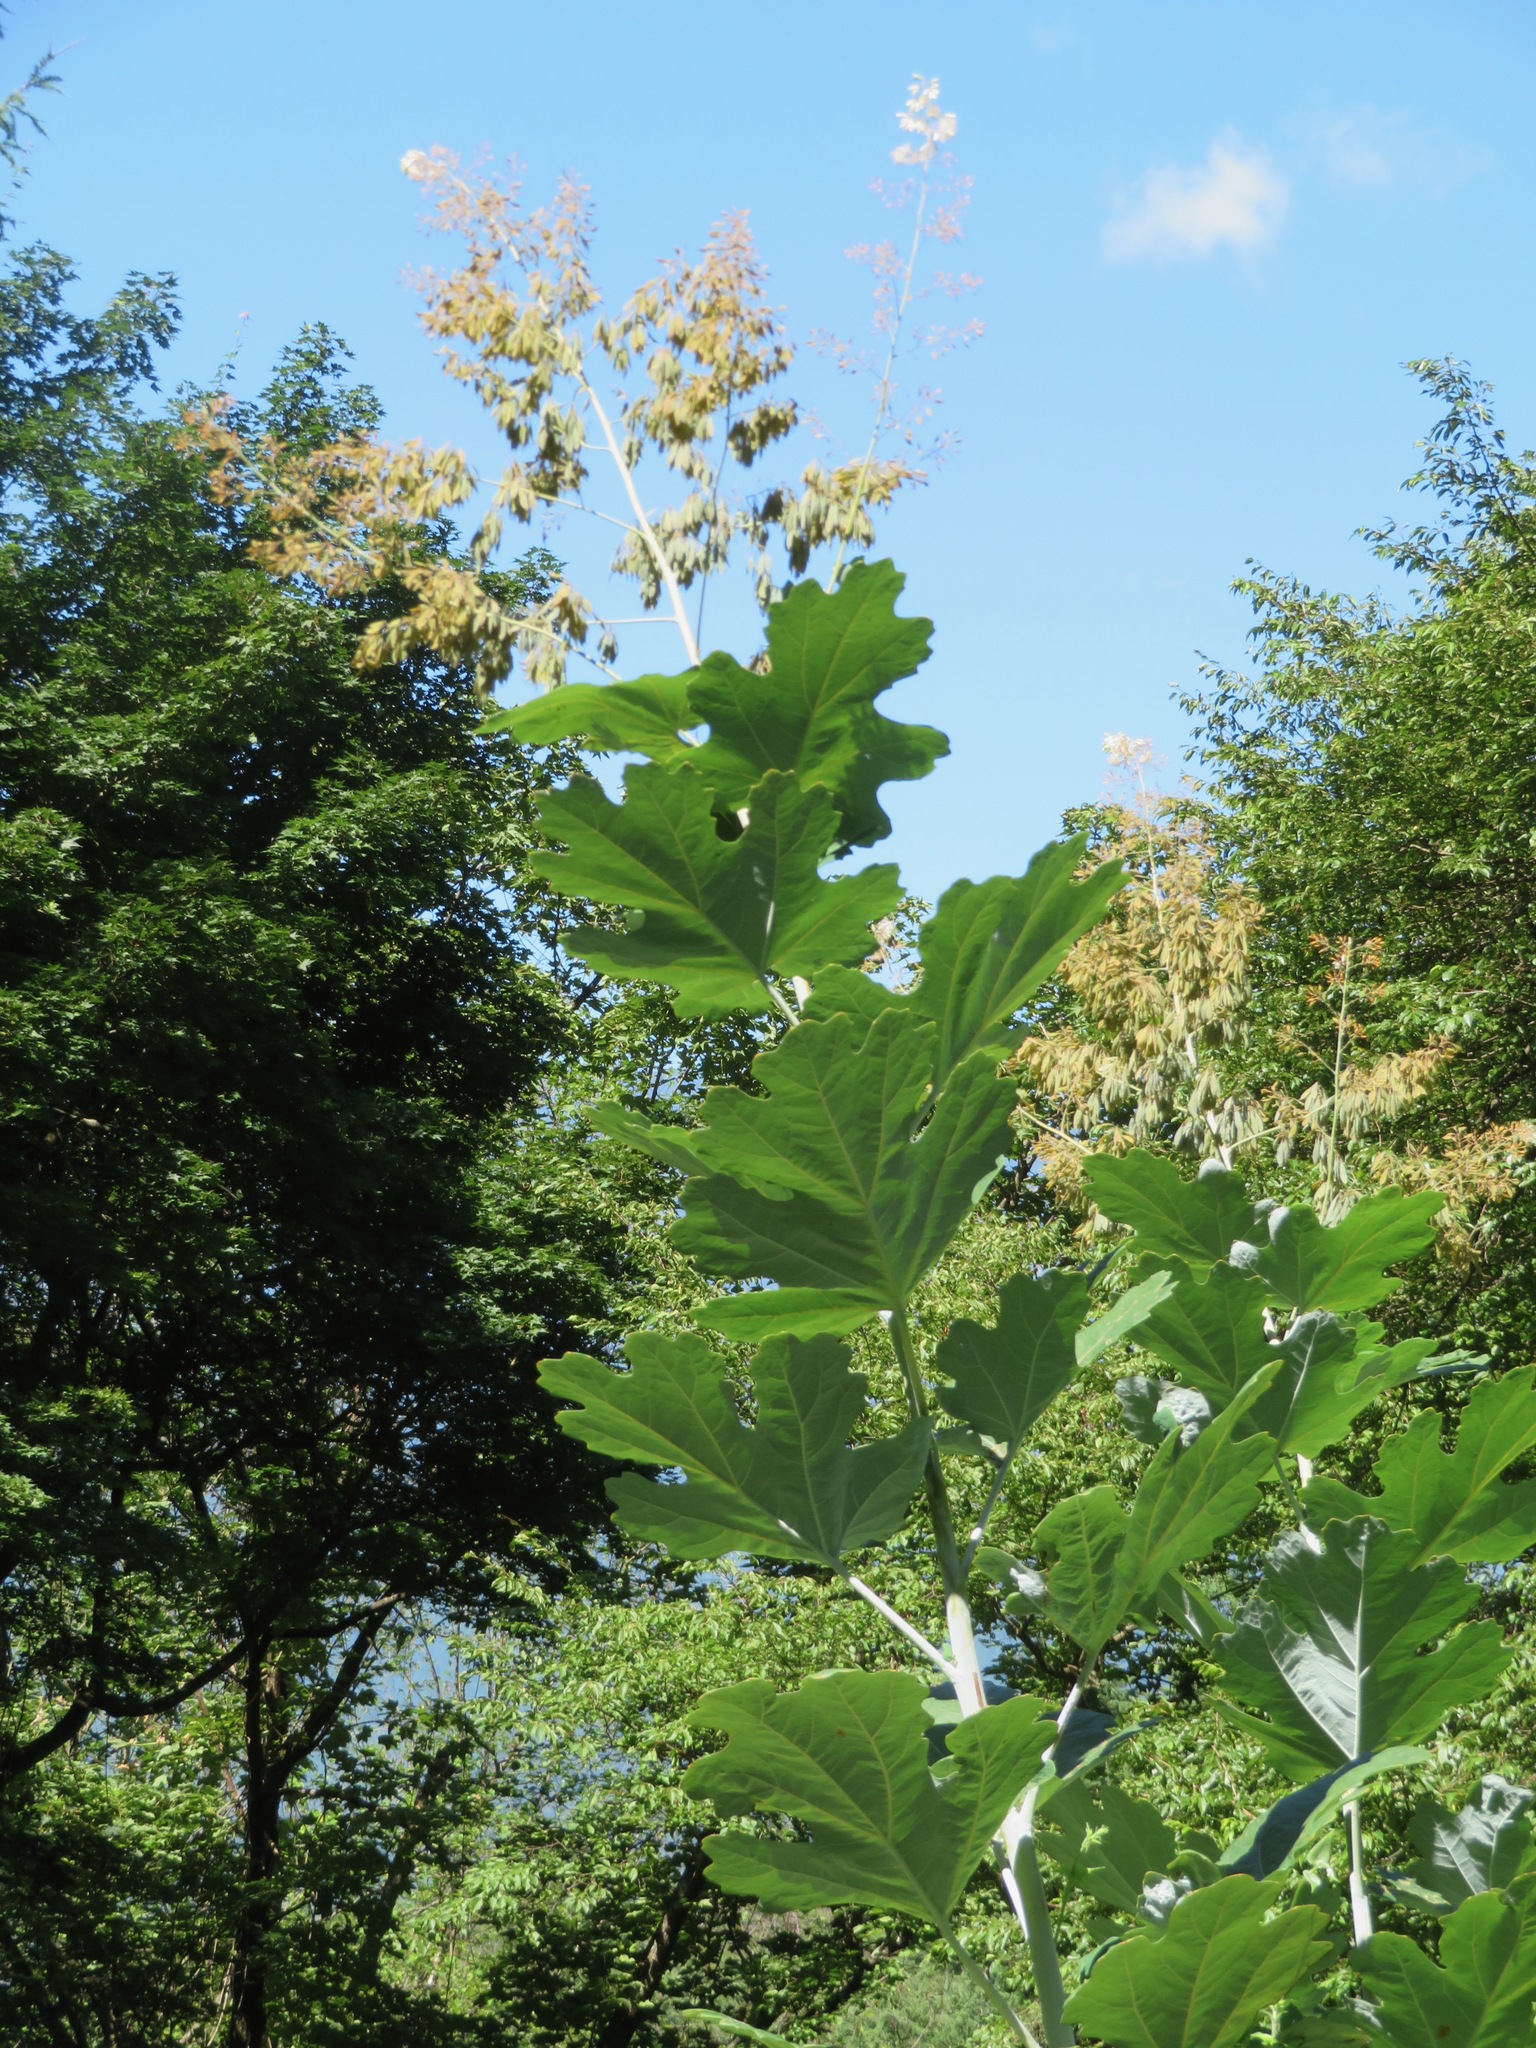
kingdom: Plantae
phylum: Tracheophyta
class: Magnoliopsida
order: Ranunculales
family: Papaveraceae
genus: Macleaya
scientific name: Macleaya cordata
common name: Plume poppy
